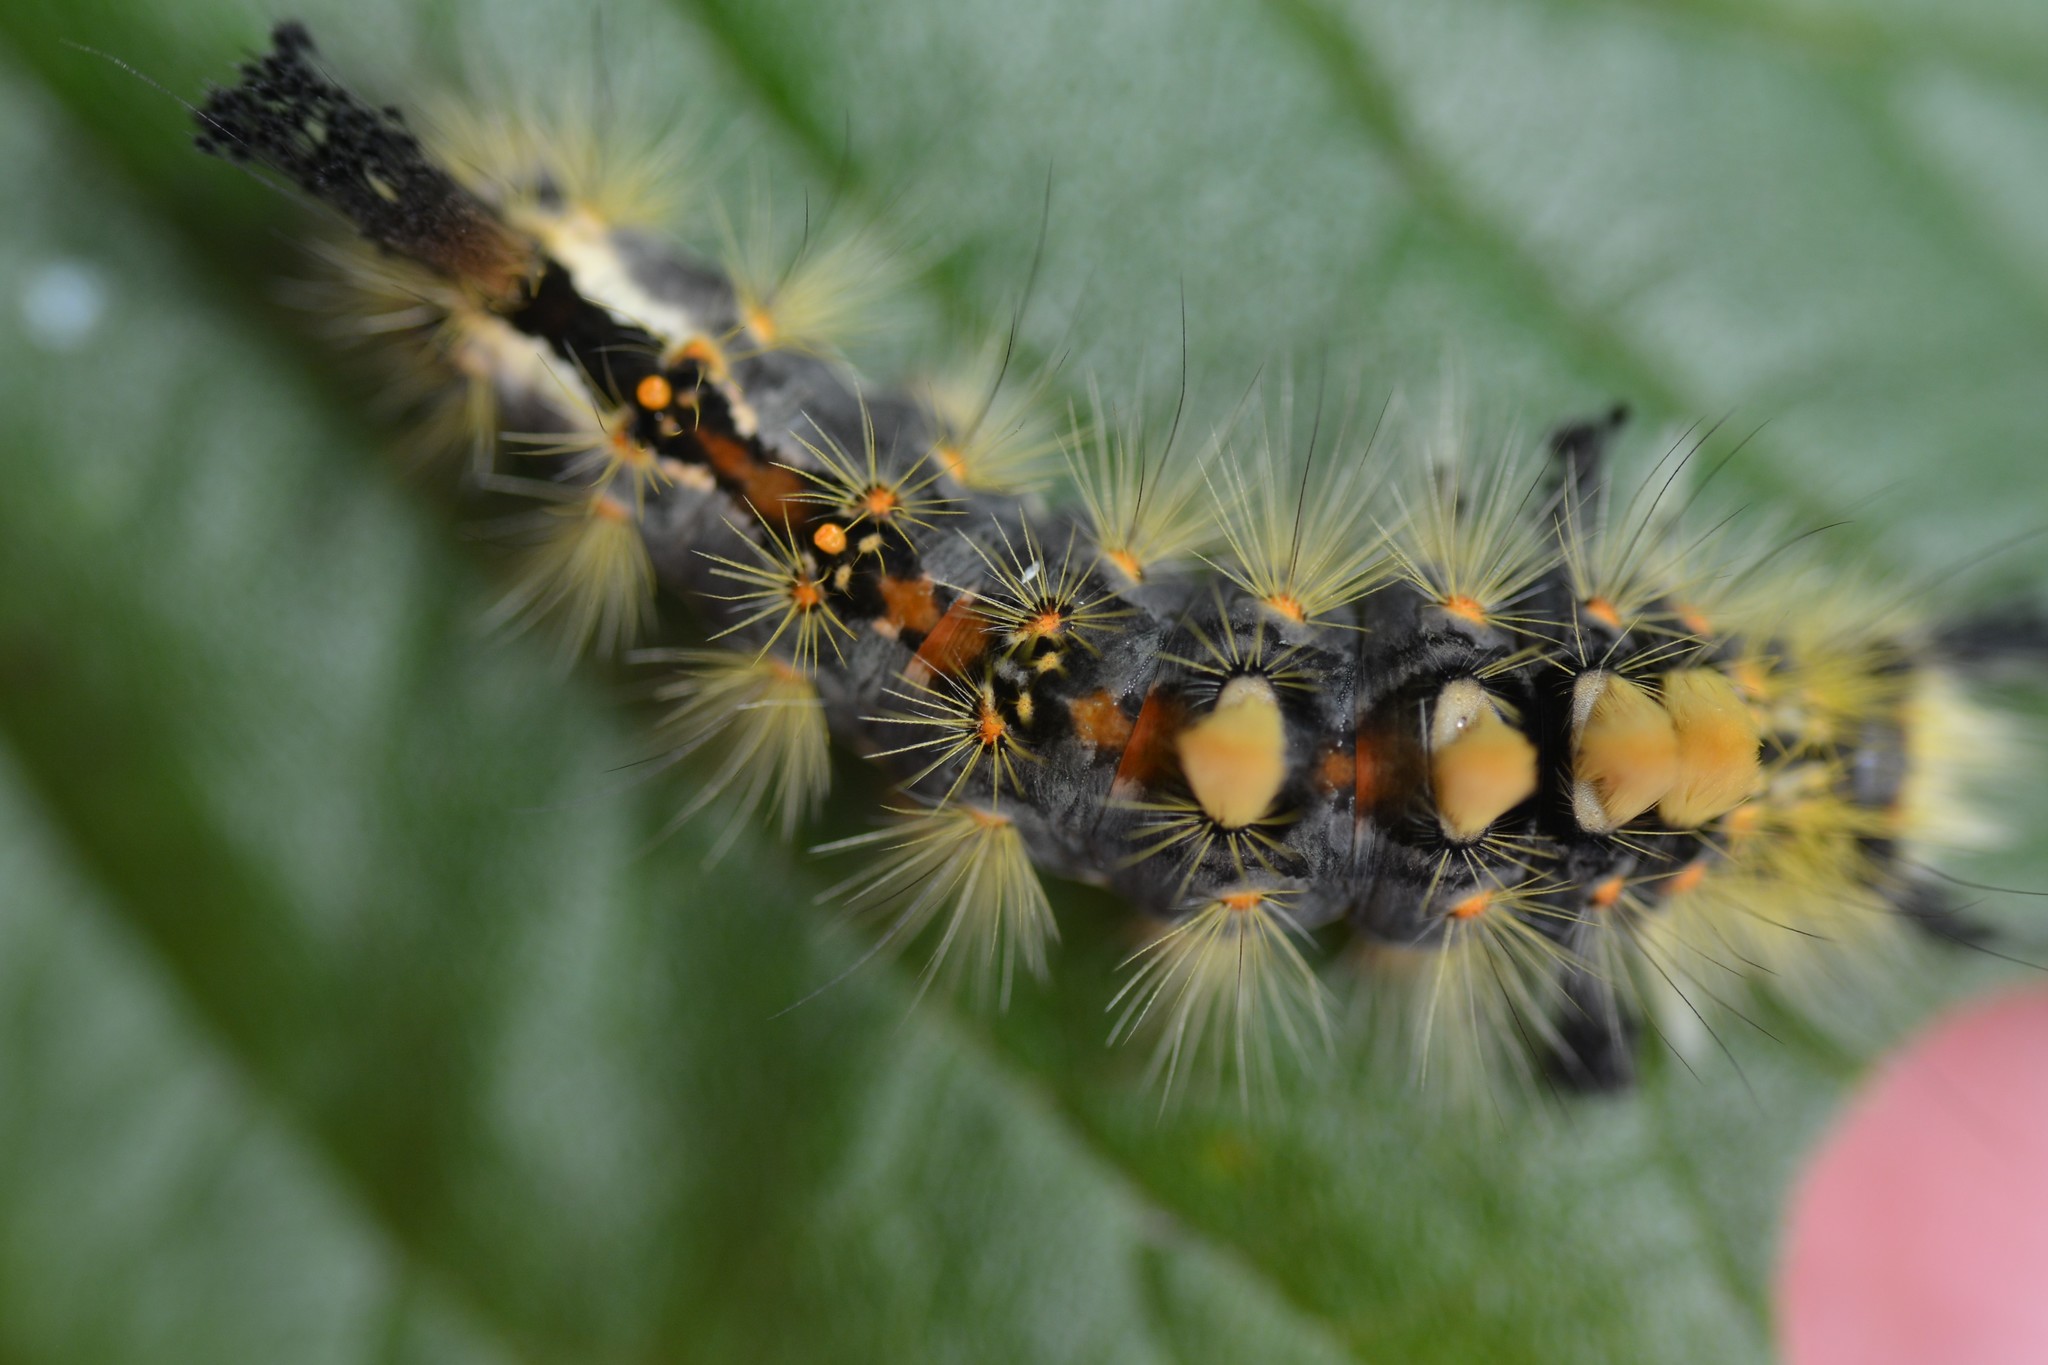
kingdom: Animalia
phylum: Arthropoda
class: Insecta
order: Lepidoptera
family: Erebidae
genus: Orgyia
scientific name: Orgyia antiqua
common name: Vapourer
